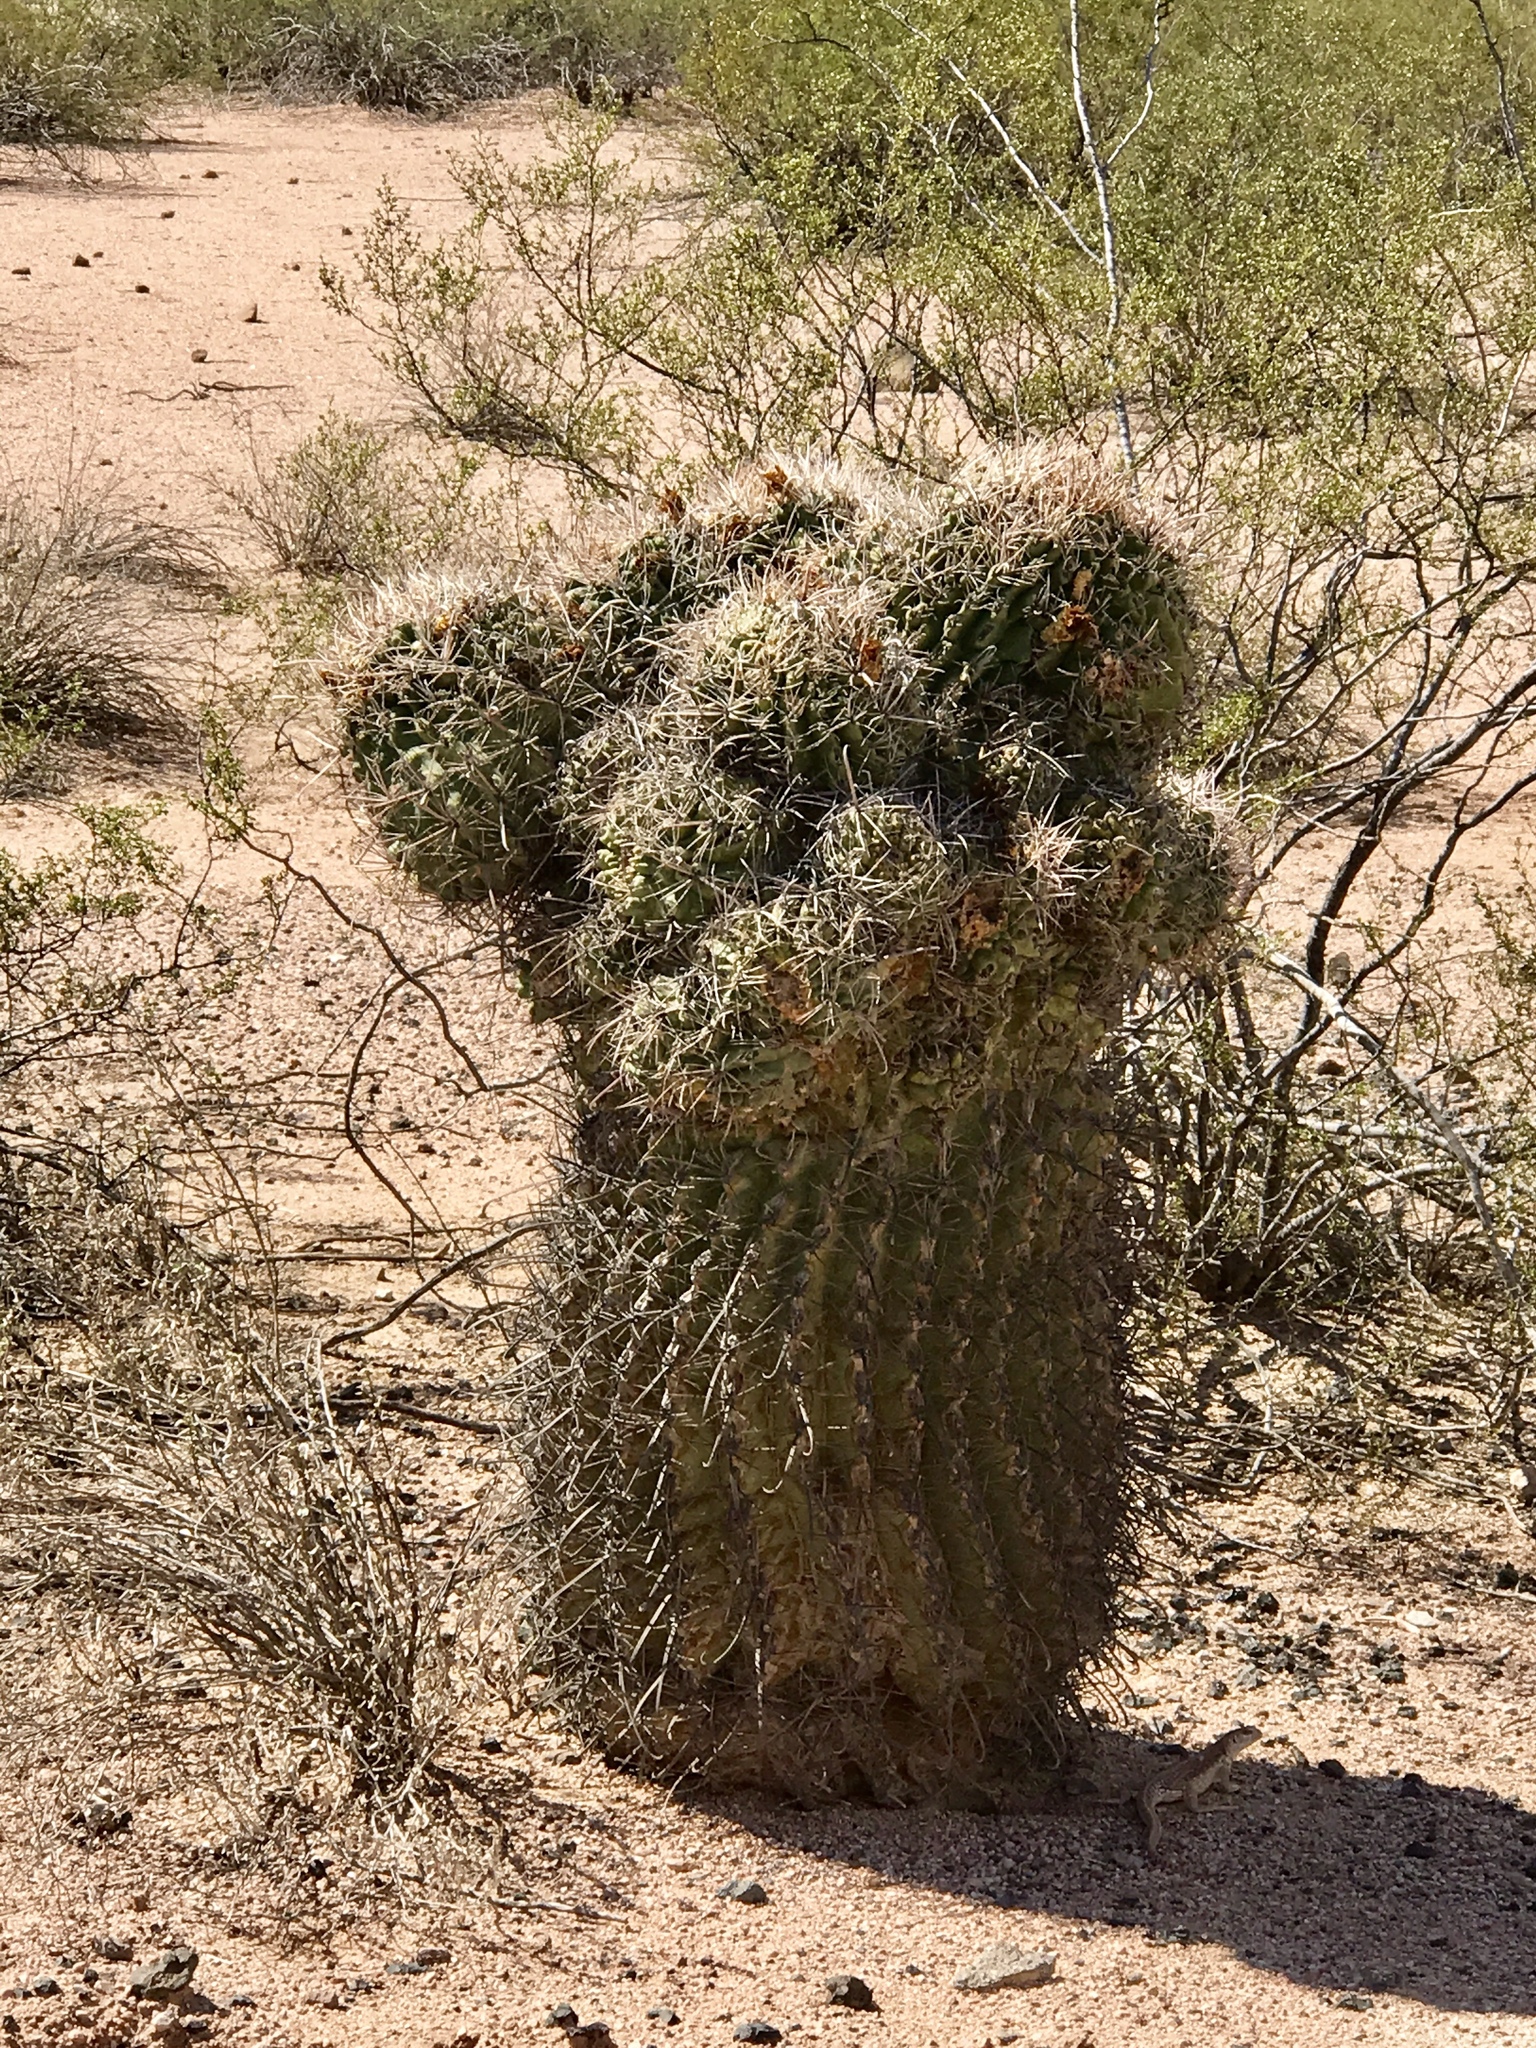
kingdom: Plantae
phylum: Tracheophyta
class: Magnoliopsida
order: Caryophyllales
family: Cactaceae
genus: Ferocactus
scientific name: Ferocactus wislizeni
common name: Candy barrel cactus
